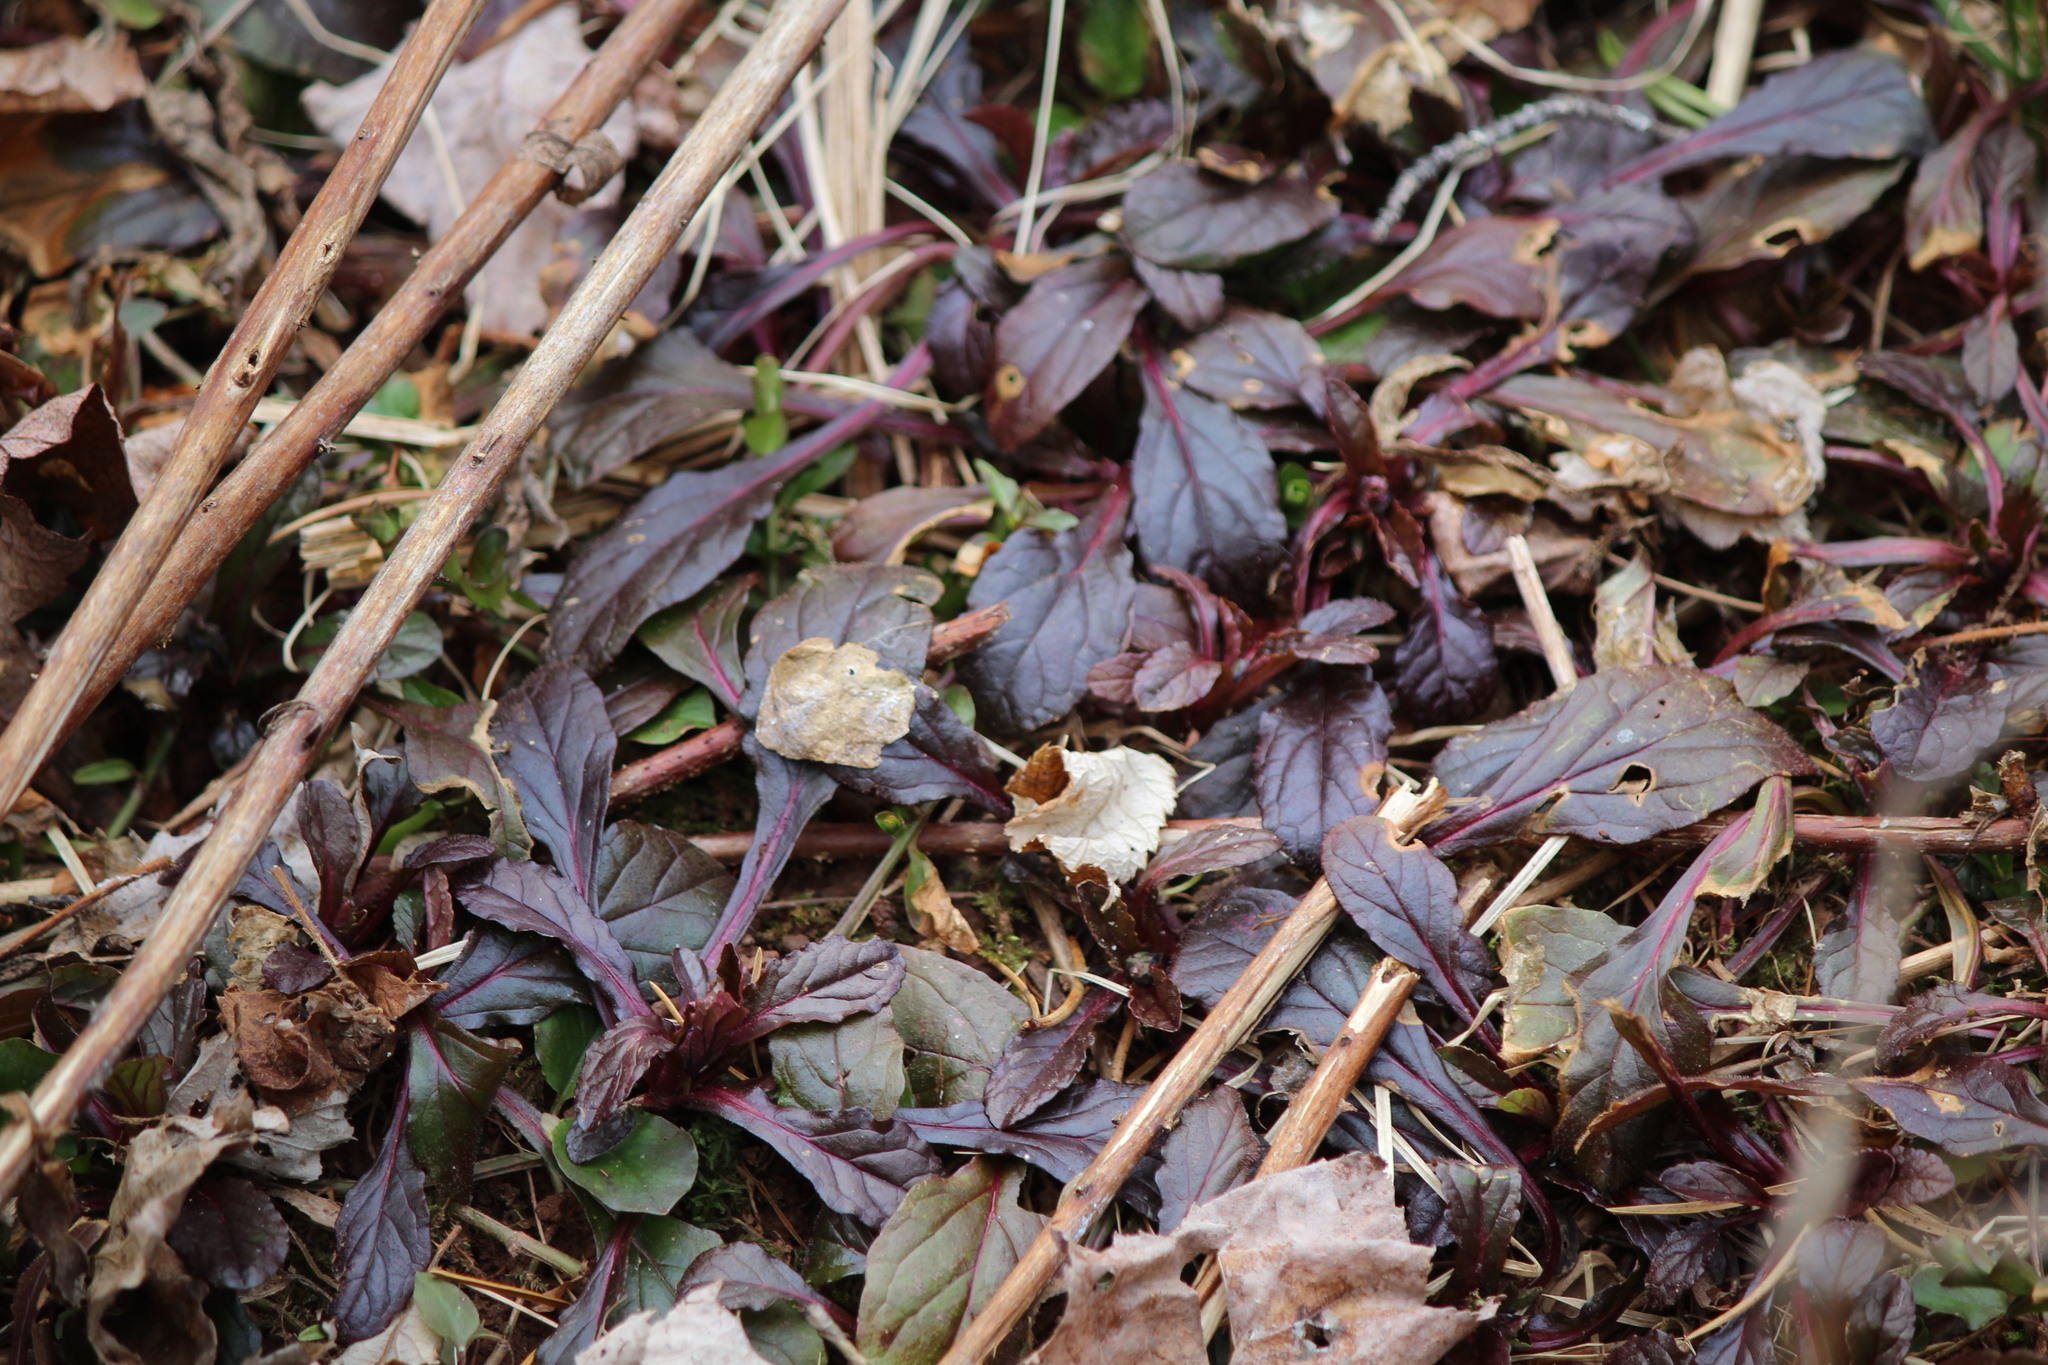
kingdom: Plantae
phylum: Tracheophyta
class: Magnoliopsida
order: Lamiales
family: Lamiaceae
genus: Ajuga
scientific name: Ajuga reptans
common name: Bugle
